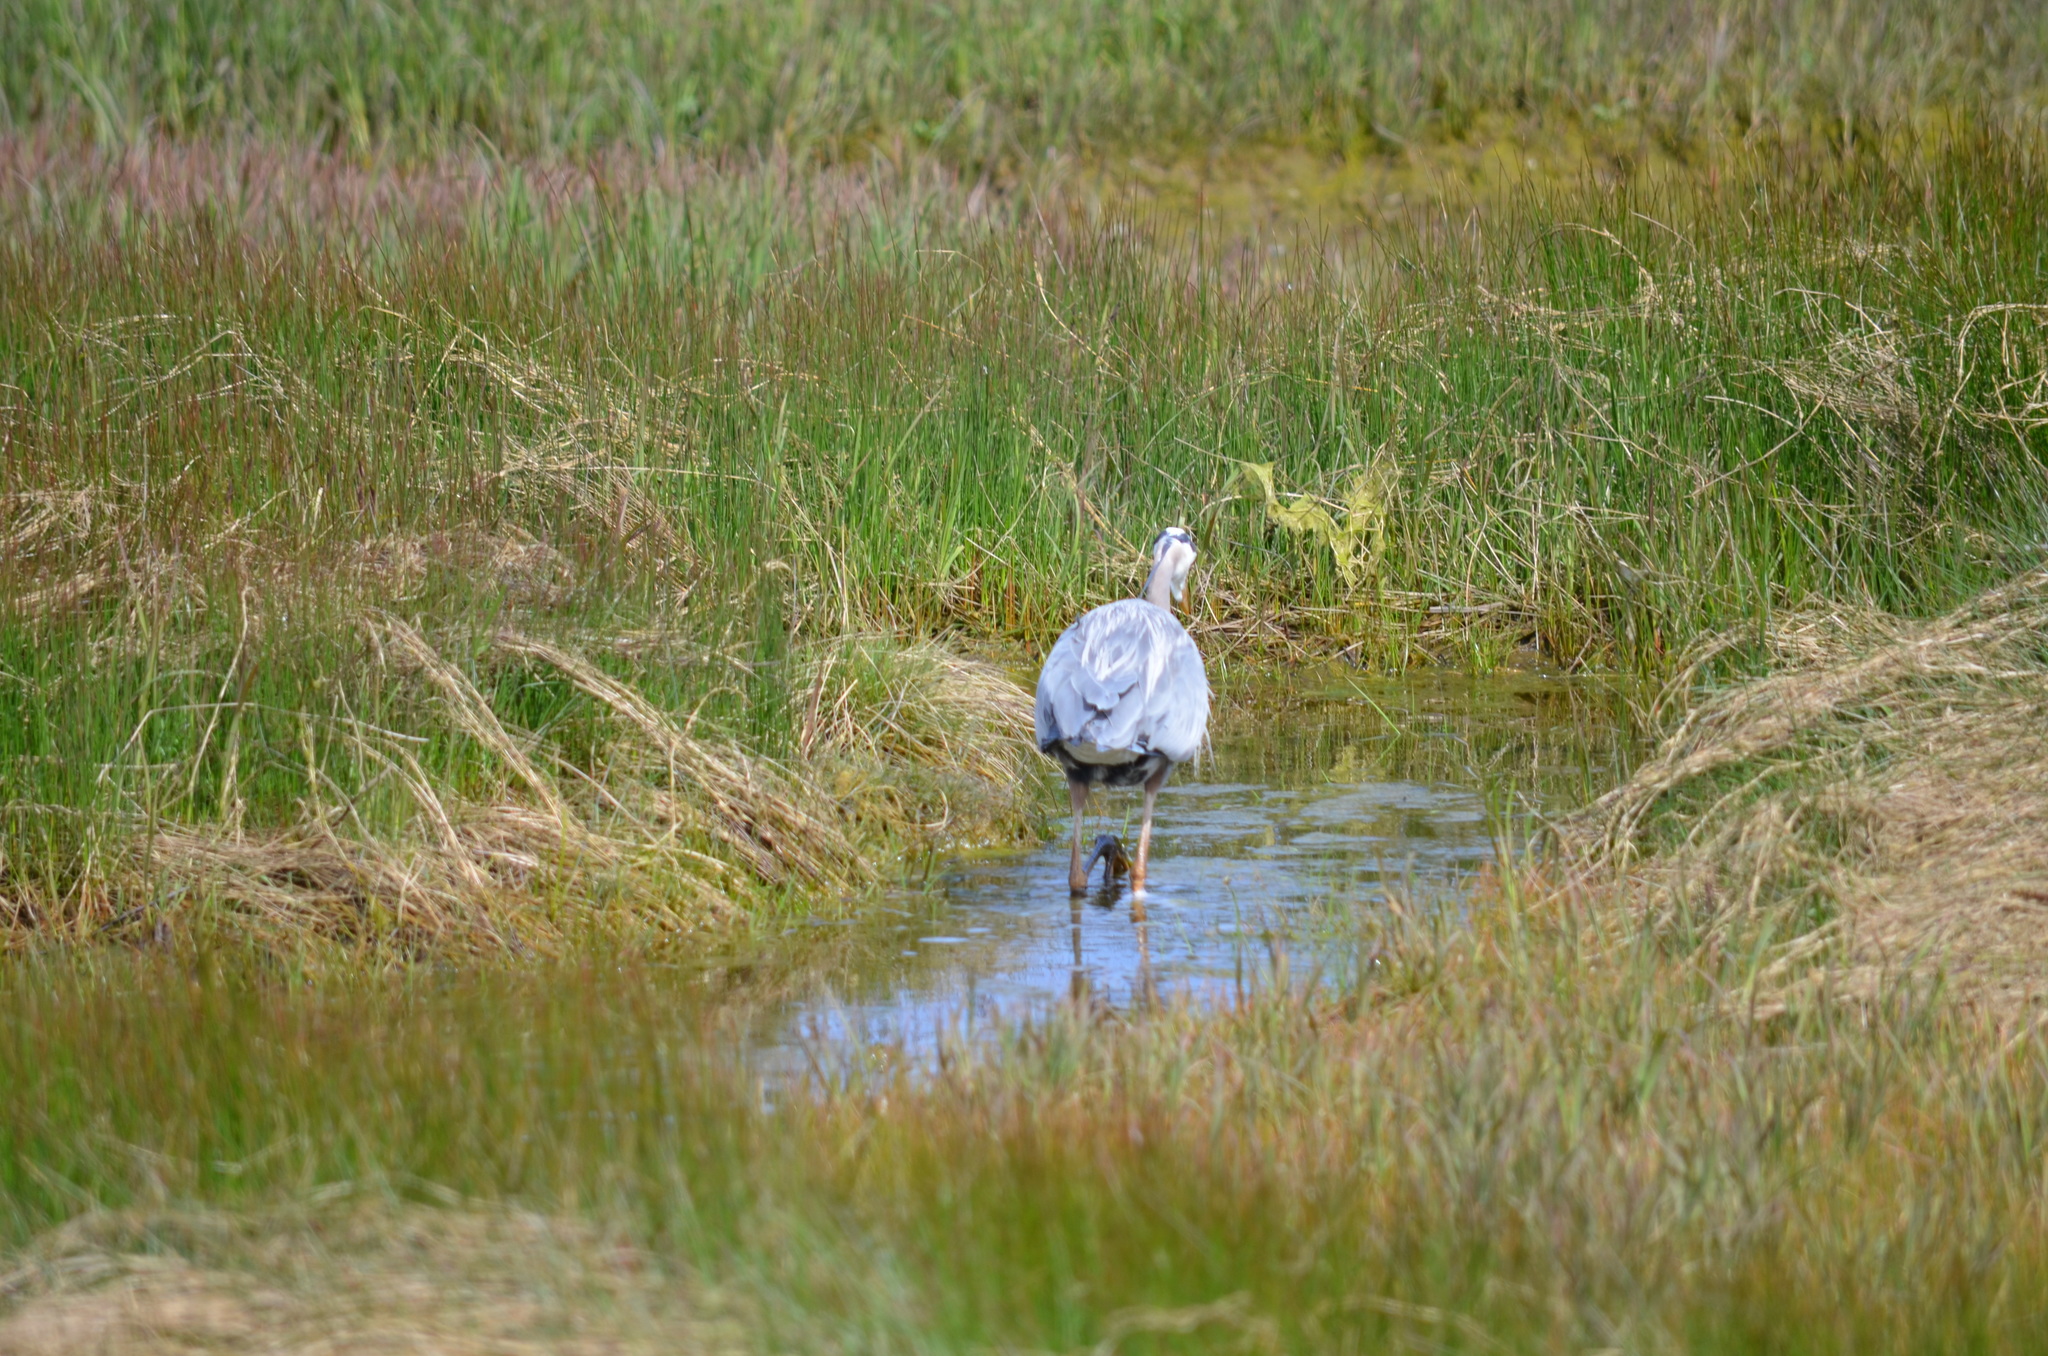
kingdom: Animalia
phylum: Chordata
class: Aves
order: Pelecaniformes
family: Ardeidae
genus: Ardea
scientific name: Ardea herodias
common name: Great blue heron
